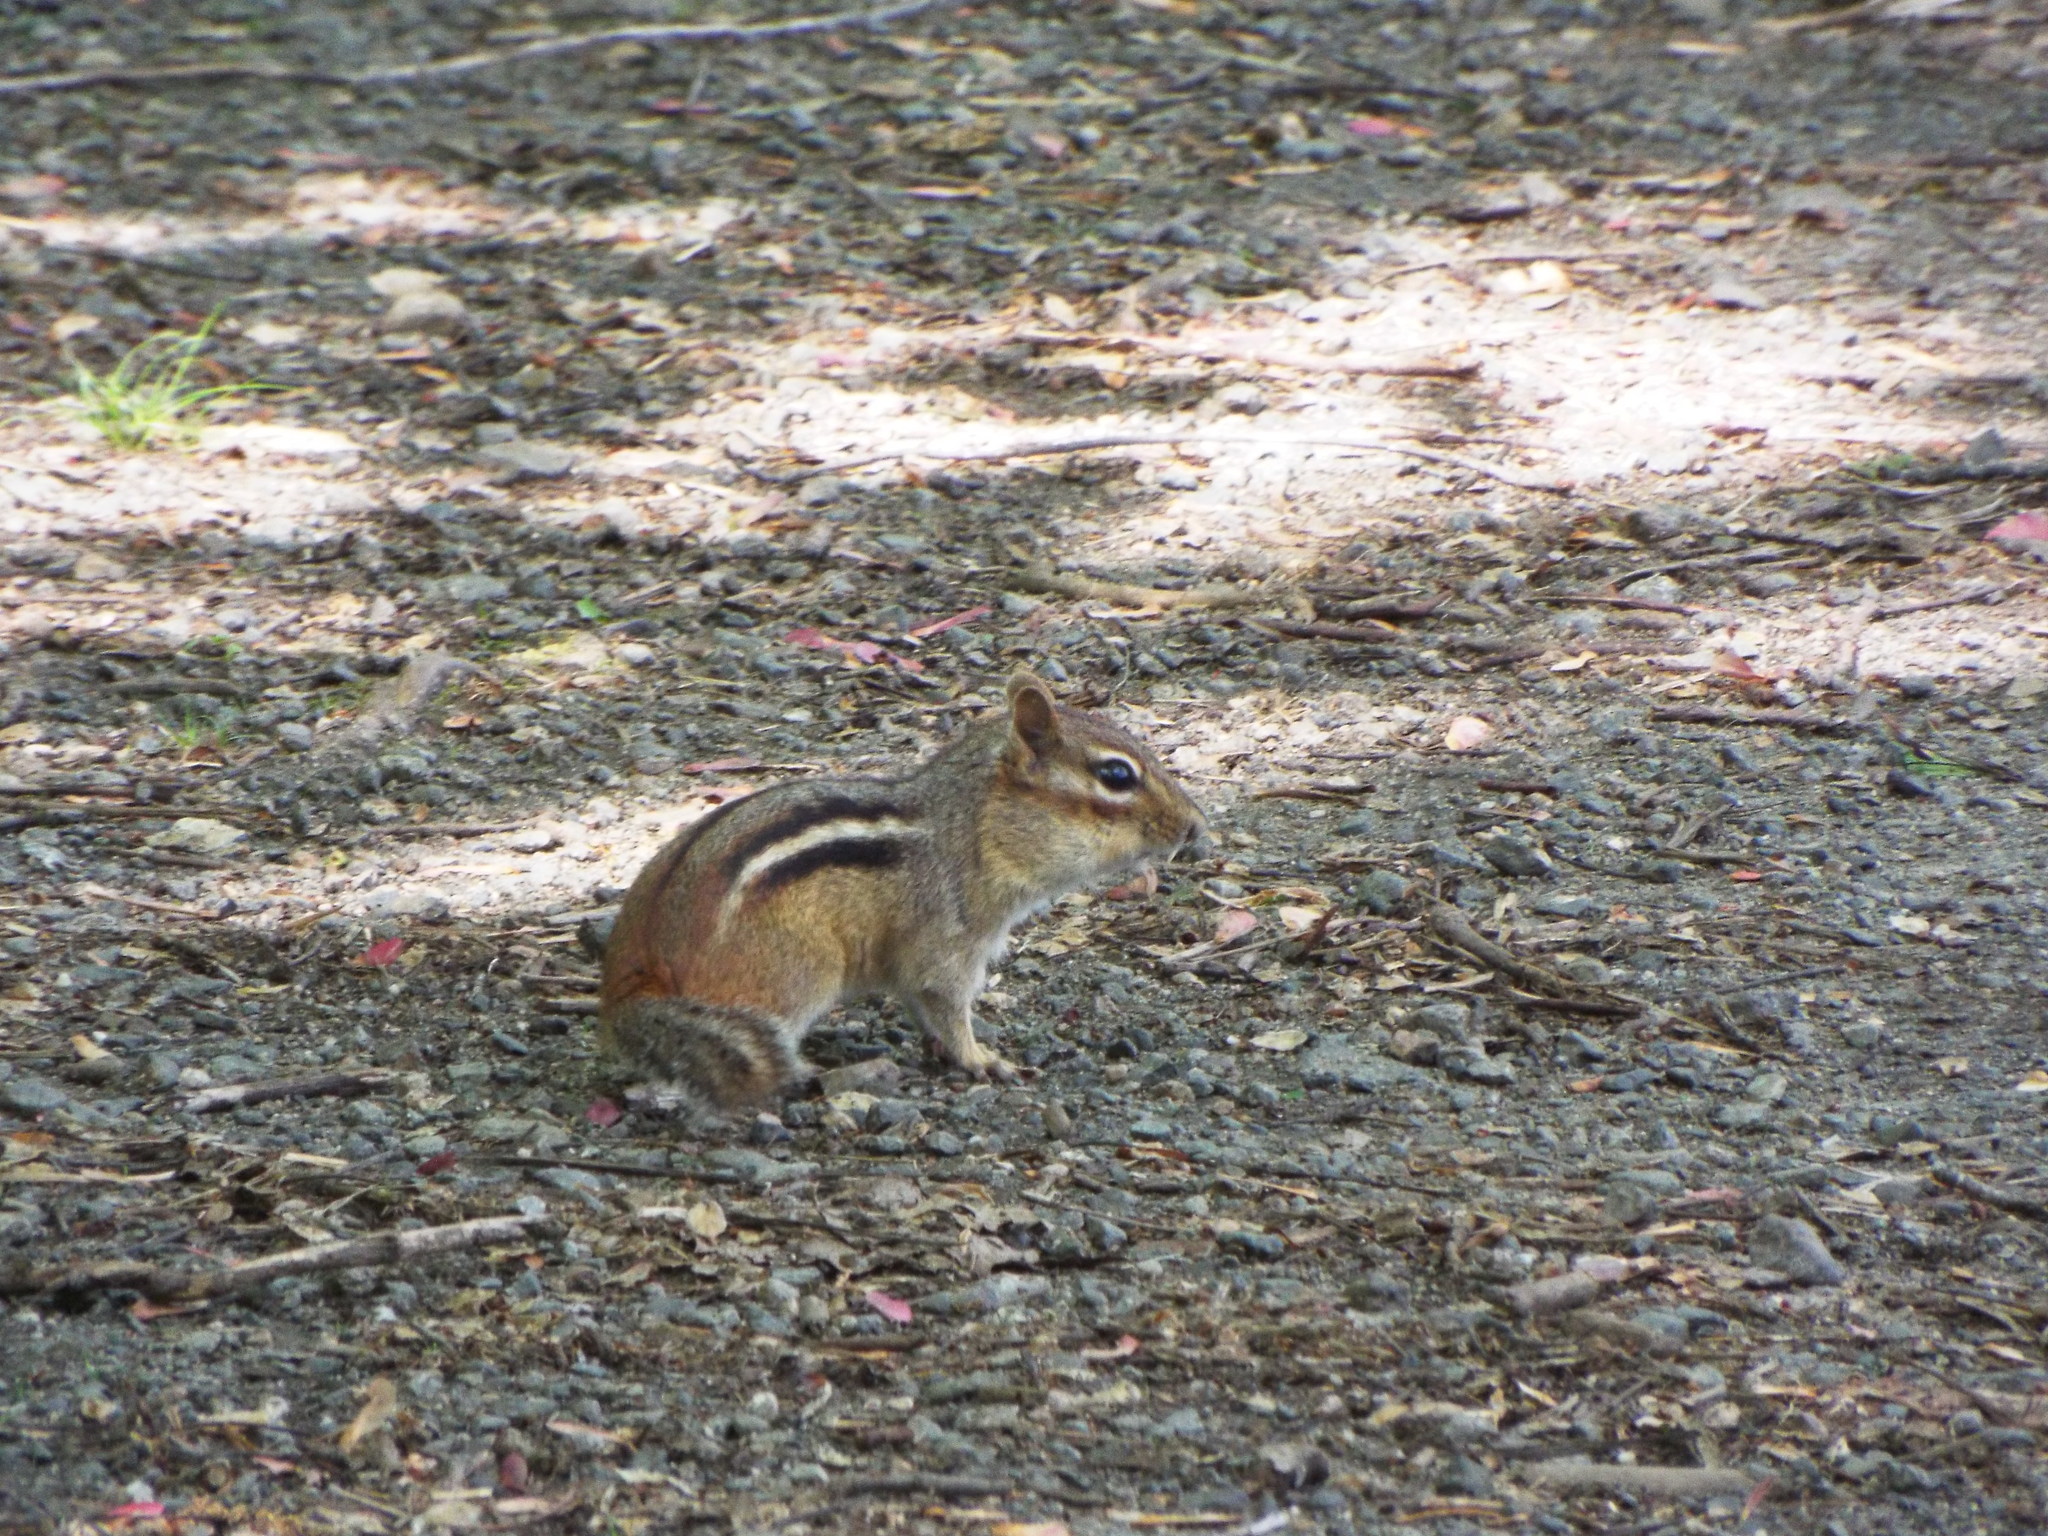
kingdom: Animalia
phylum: Chordata
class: Mammalia
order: Rodentia
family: Sciuridae
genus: Tamias
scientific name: Tamias striatus
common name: Eastern chipmunk
